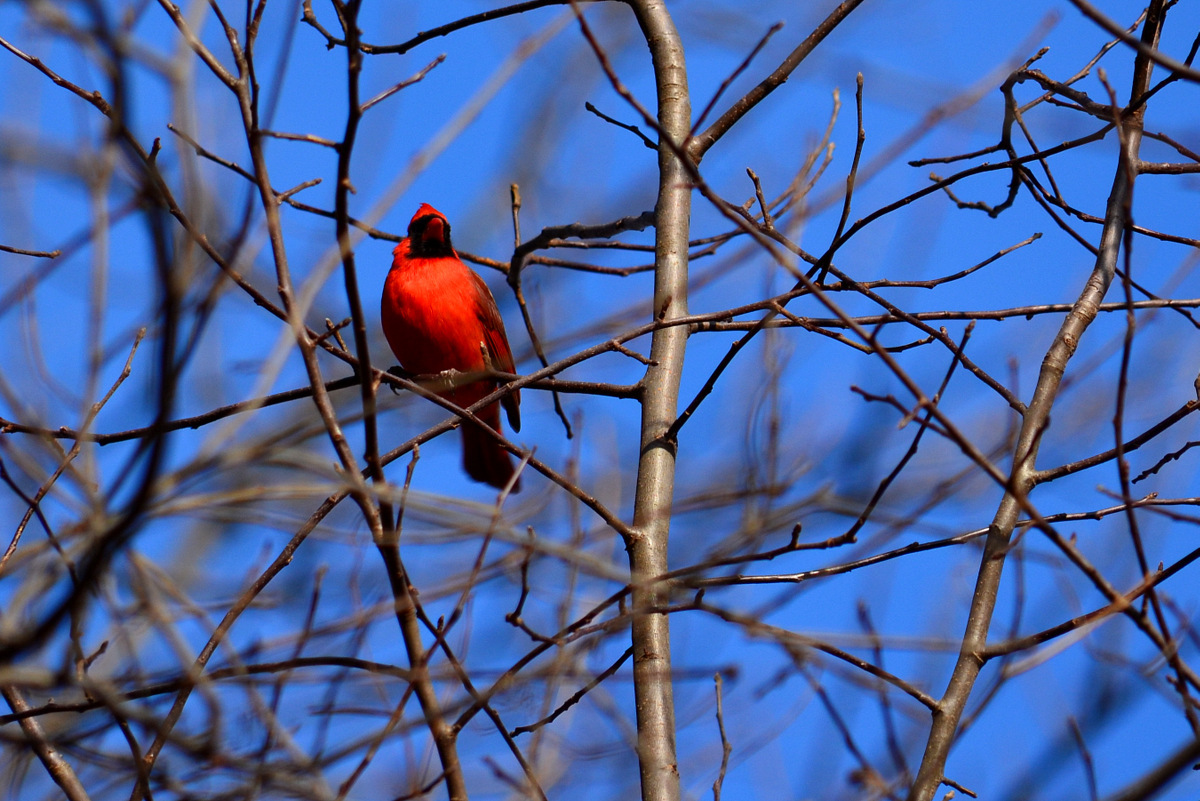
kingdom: Animalia
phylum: Chordata
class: Aves
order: Passeriformes
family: Cardinalidae
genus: Cardinalis
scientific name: Cardinalis cardinalis
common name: Northern cardinal
